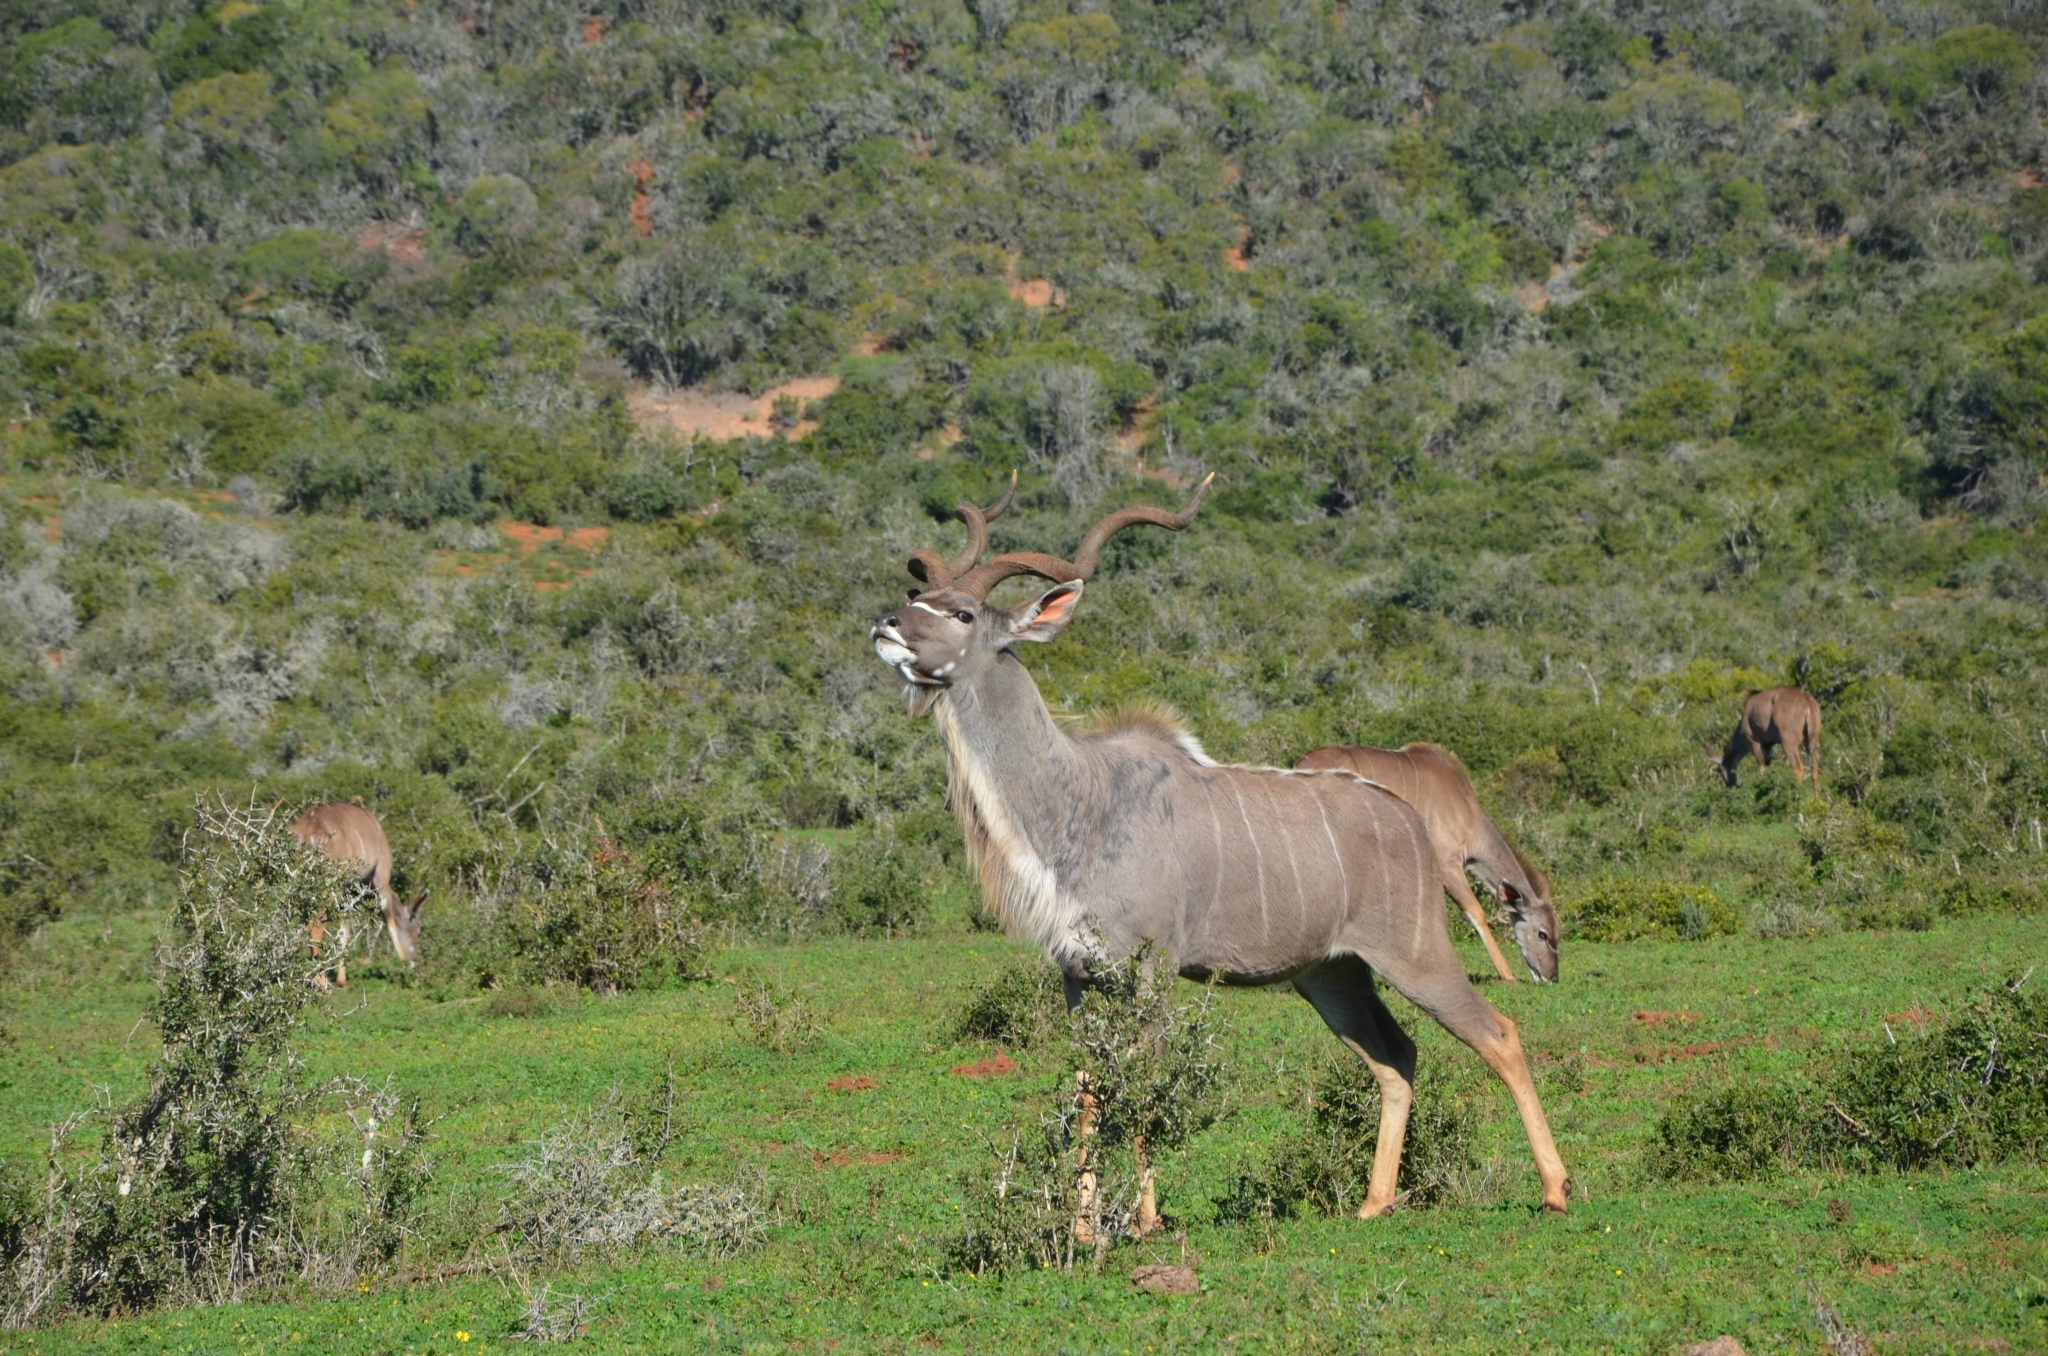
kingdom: Animalia
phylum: Chordata
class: Mammalia
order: Artiodactyla
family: Bovidae
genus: Tragelaphus
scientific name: Tragelaphus strepsiceros
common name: Greater kudu
